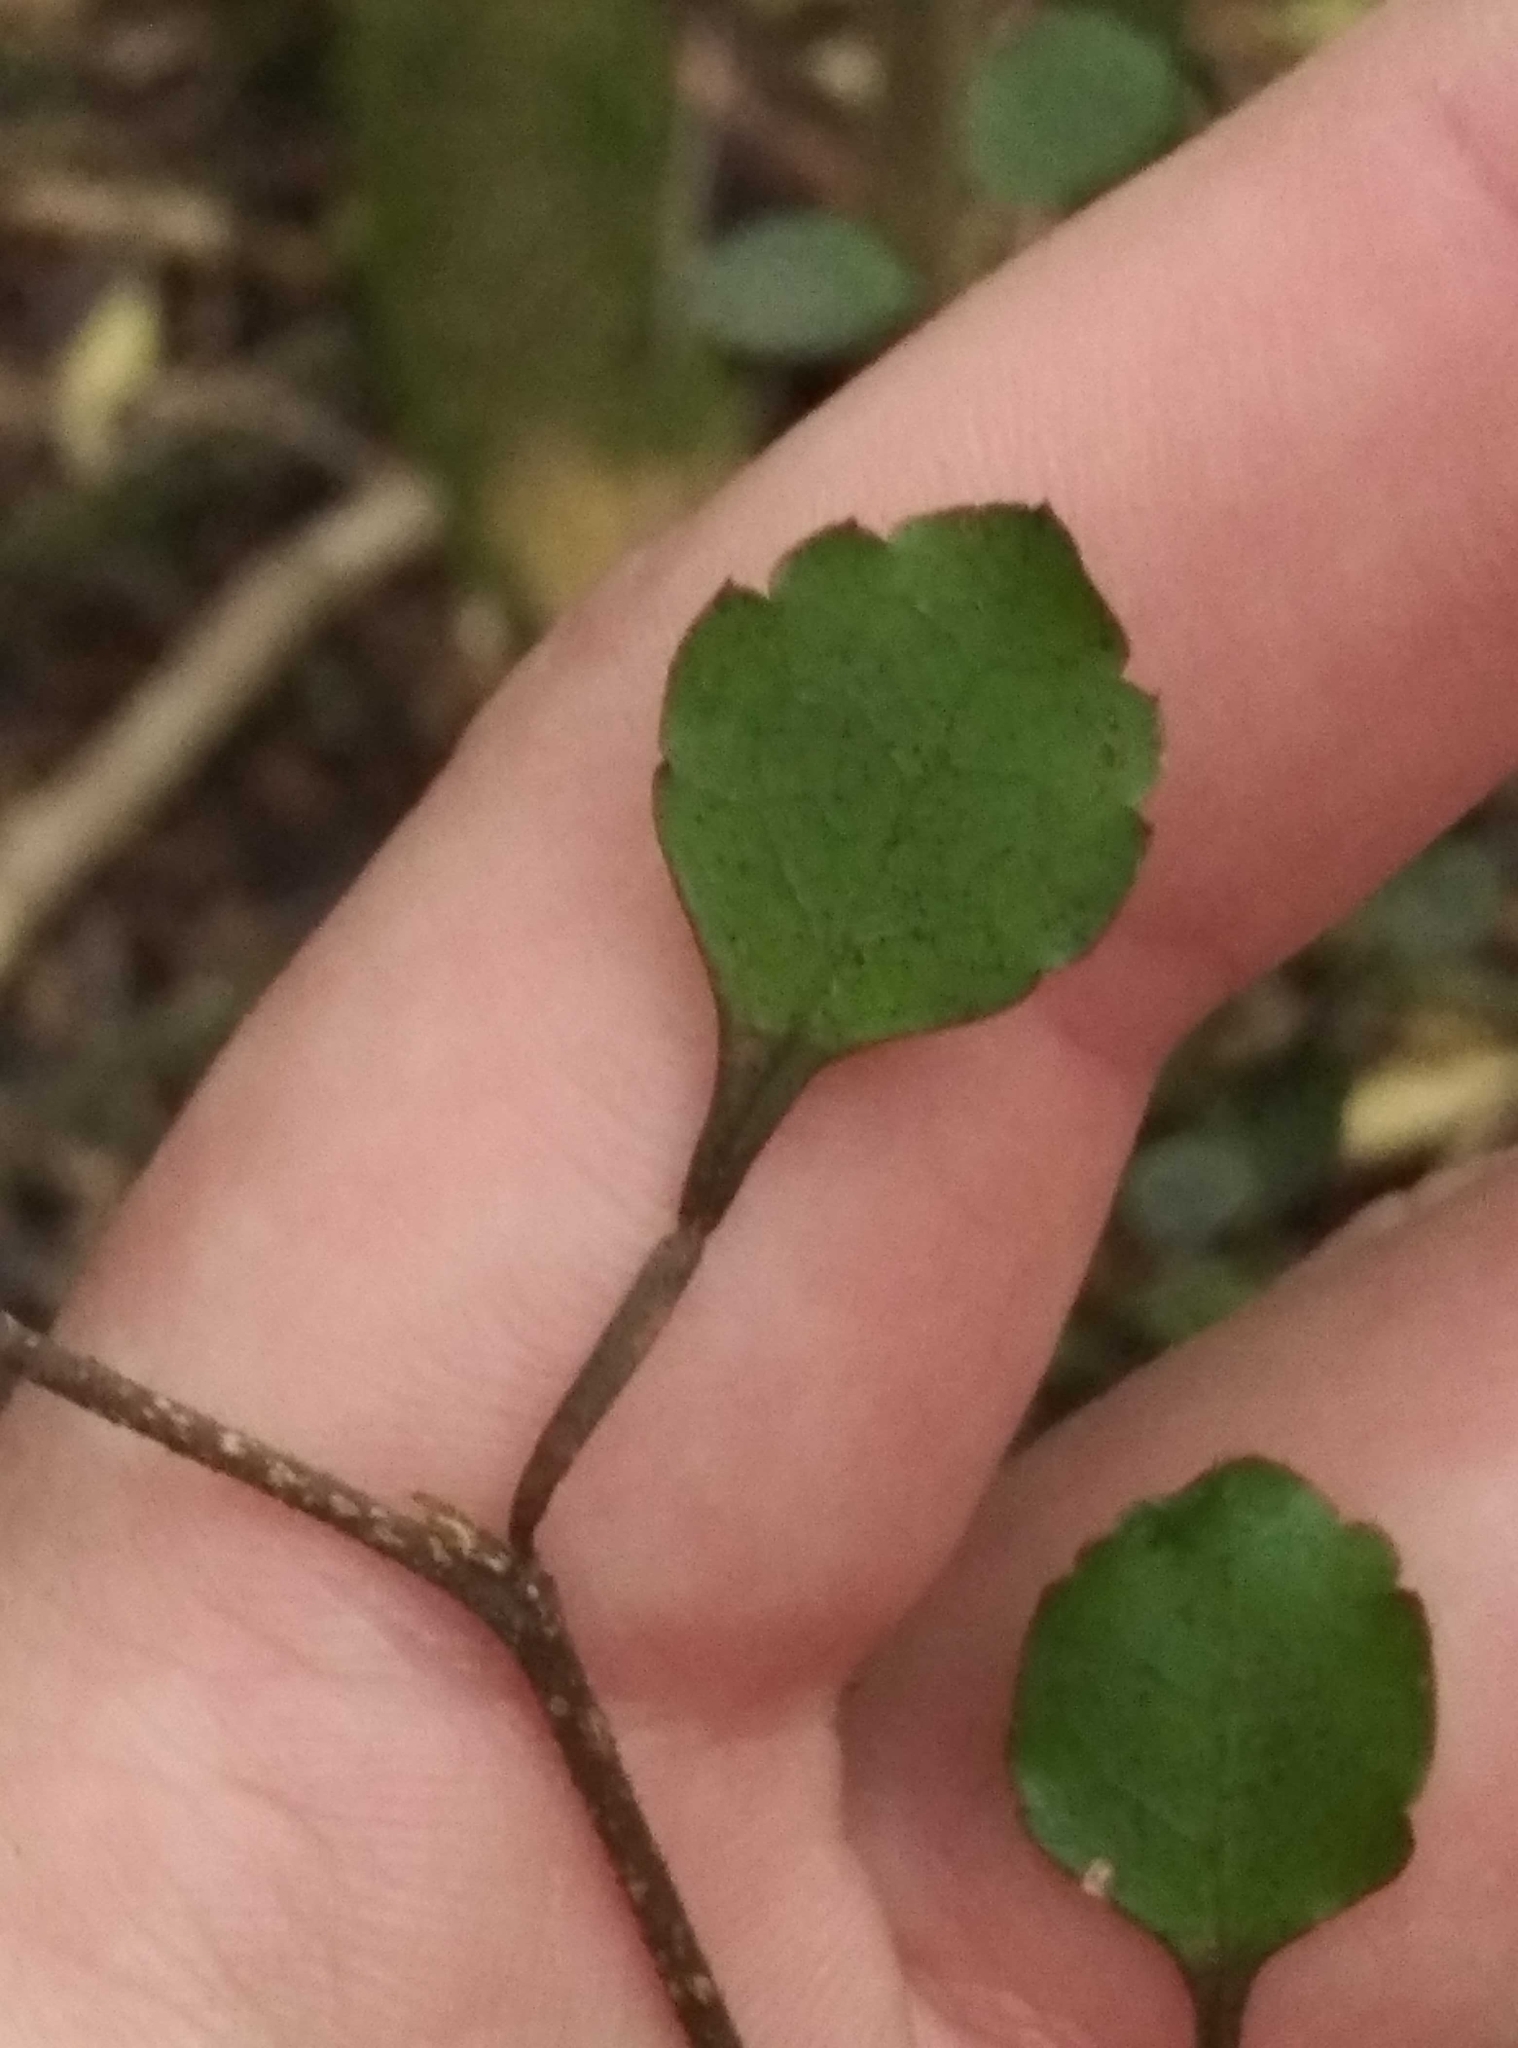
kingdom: Plantae
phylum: Tracheophyta
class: Magnoliopsida
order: Apiales
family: Araliaceae
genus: Raukaua
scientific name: Raukaua anomalus
